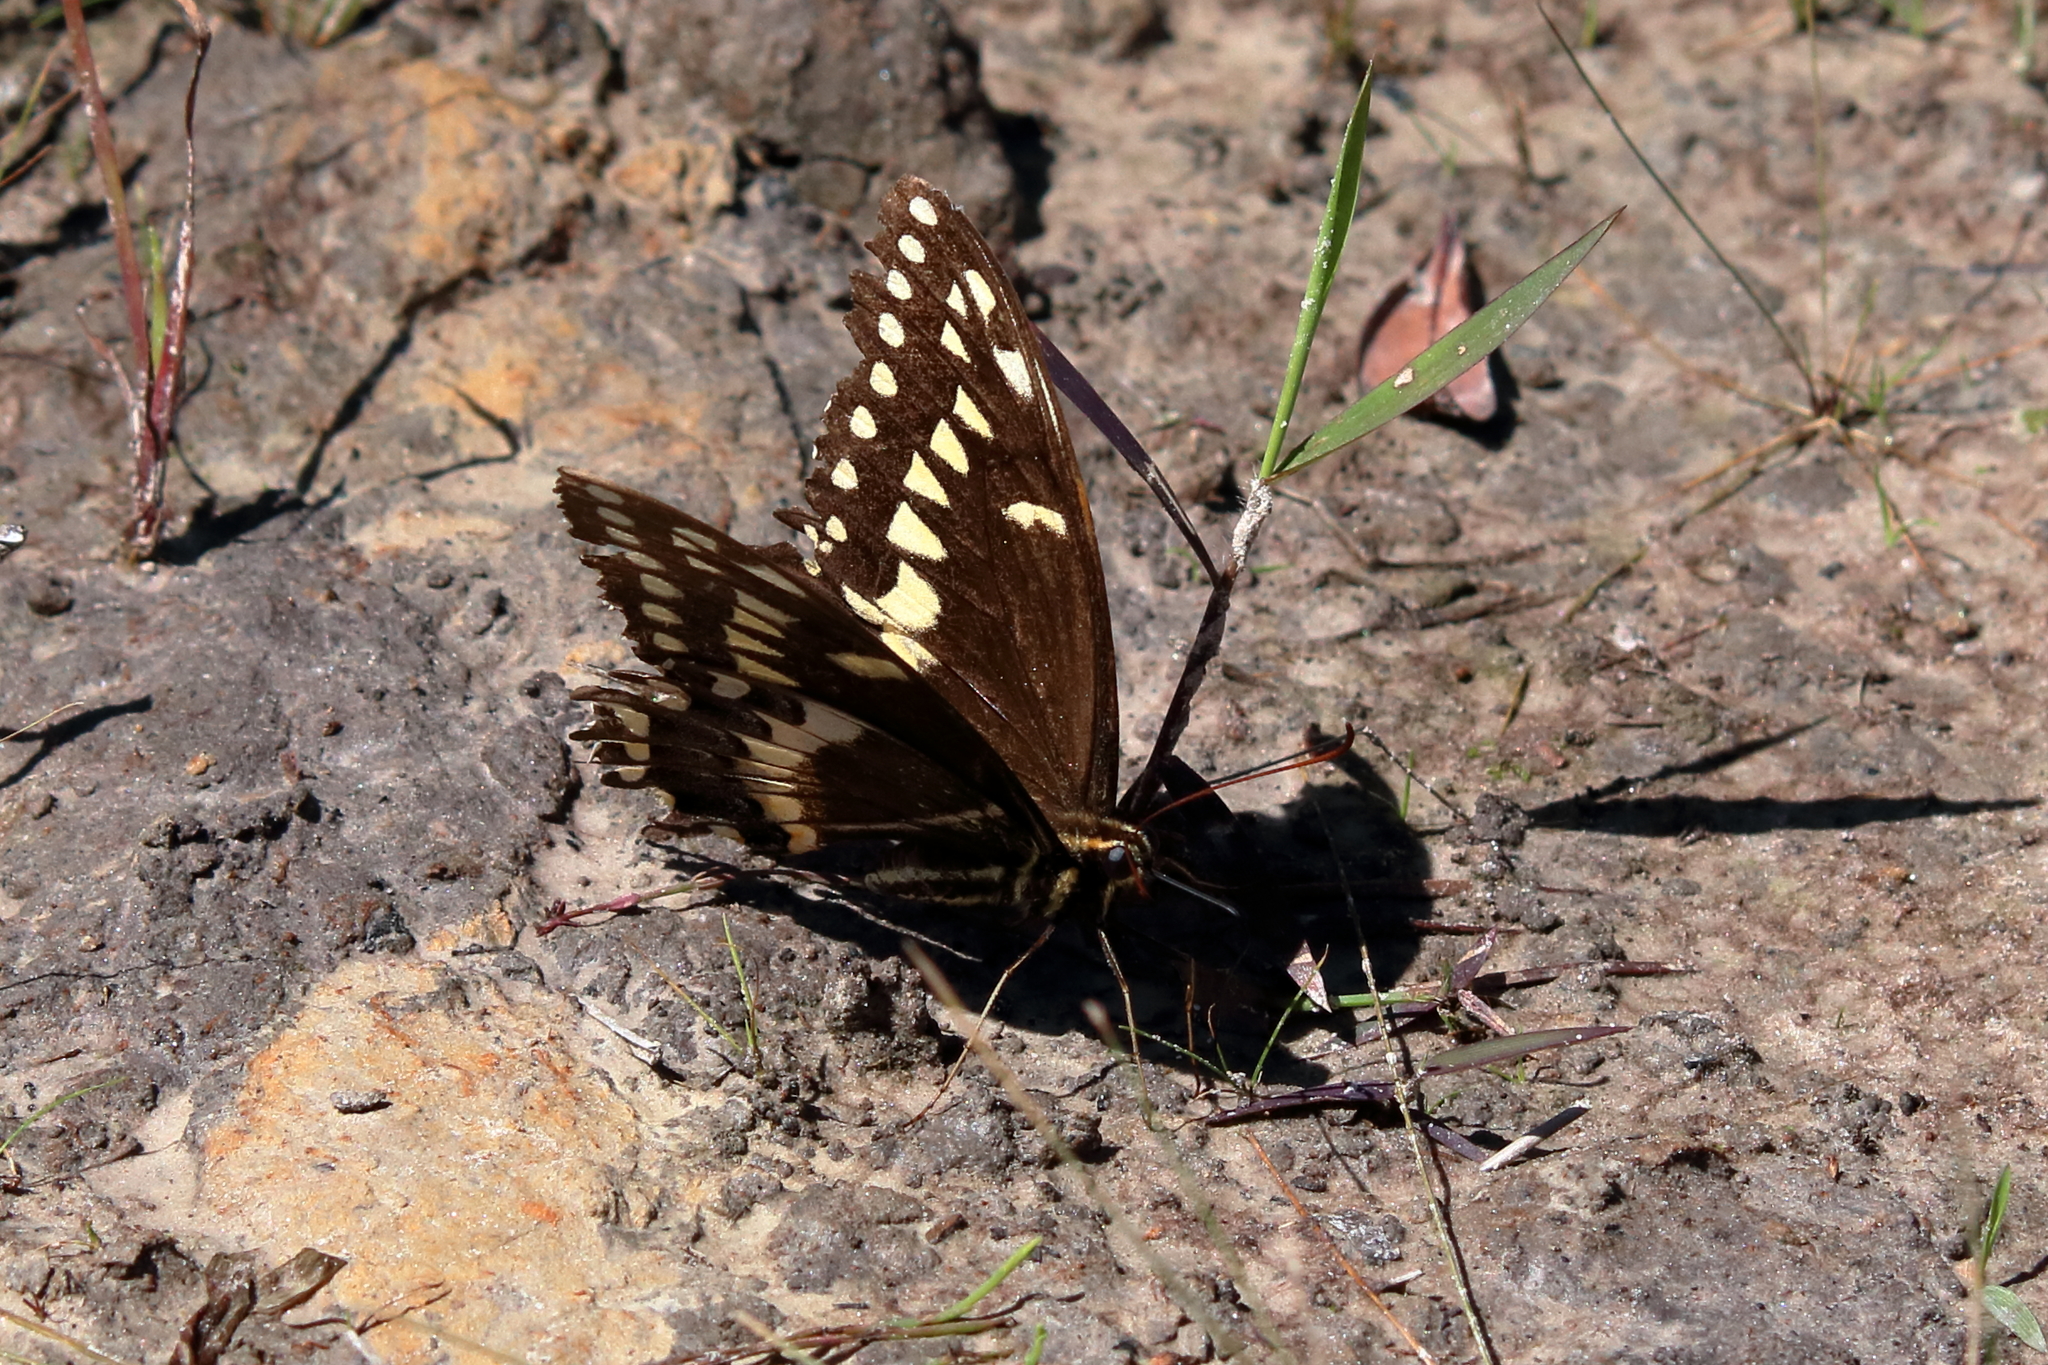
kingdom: Animalia
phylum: Arthropoda
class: Insecta
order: Lepidoptera
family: Papilionidae
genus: Papilio
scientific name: Papilio palamedes
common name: Palamedes swallowtail
